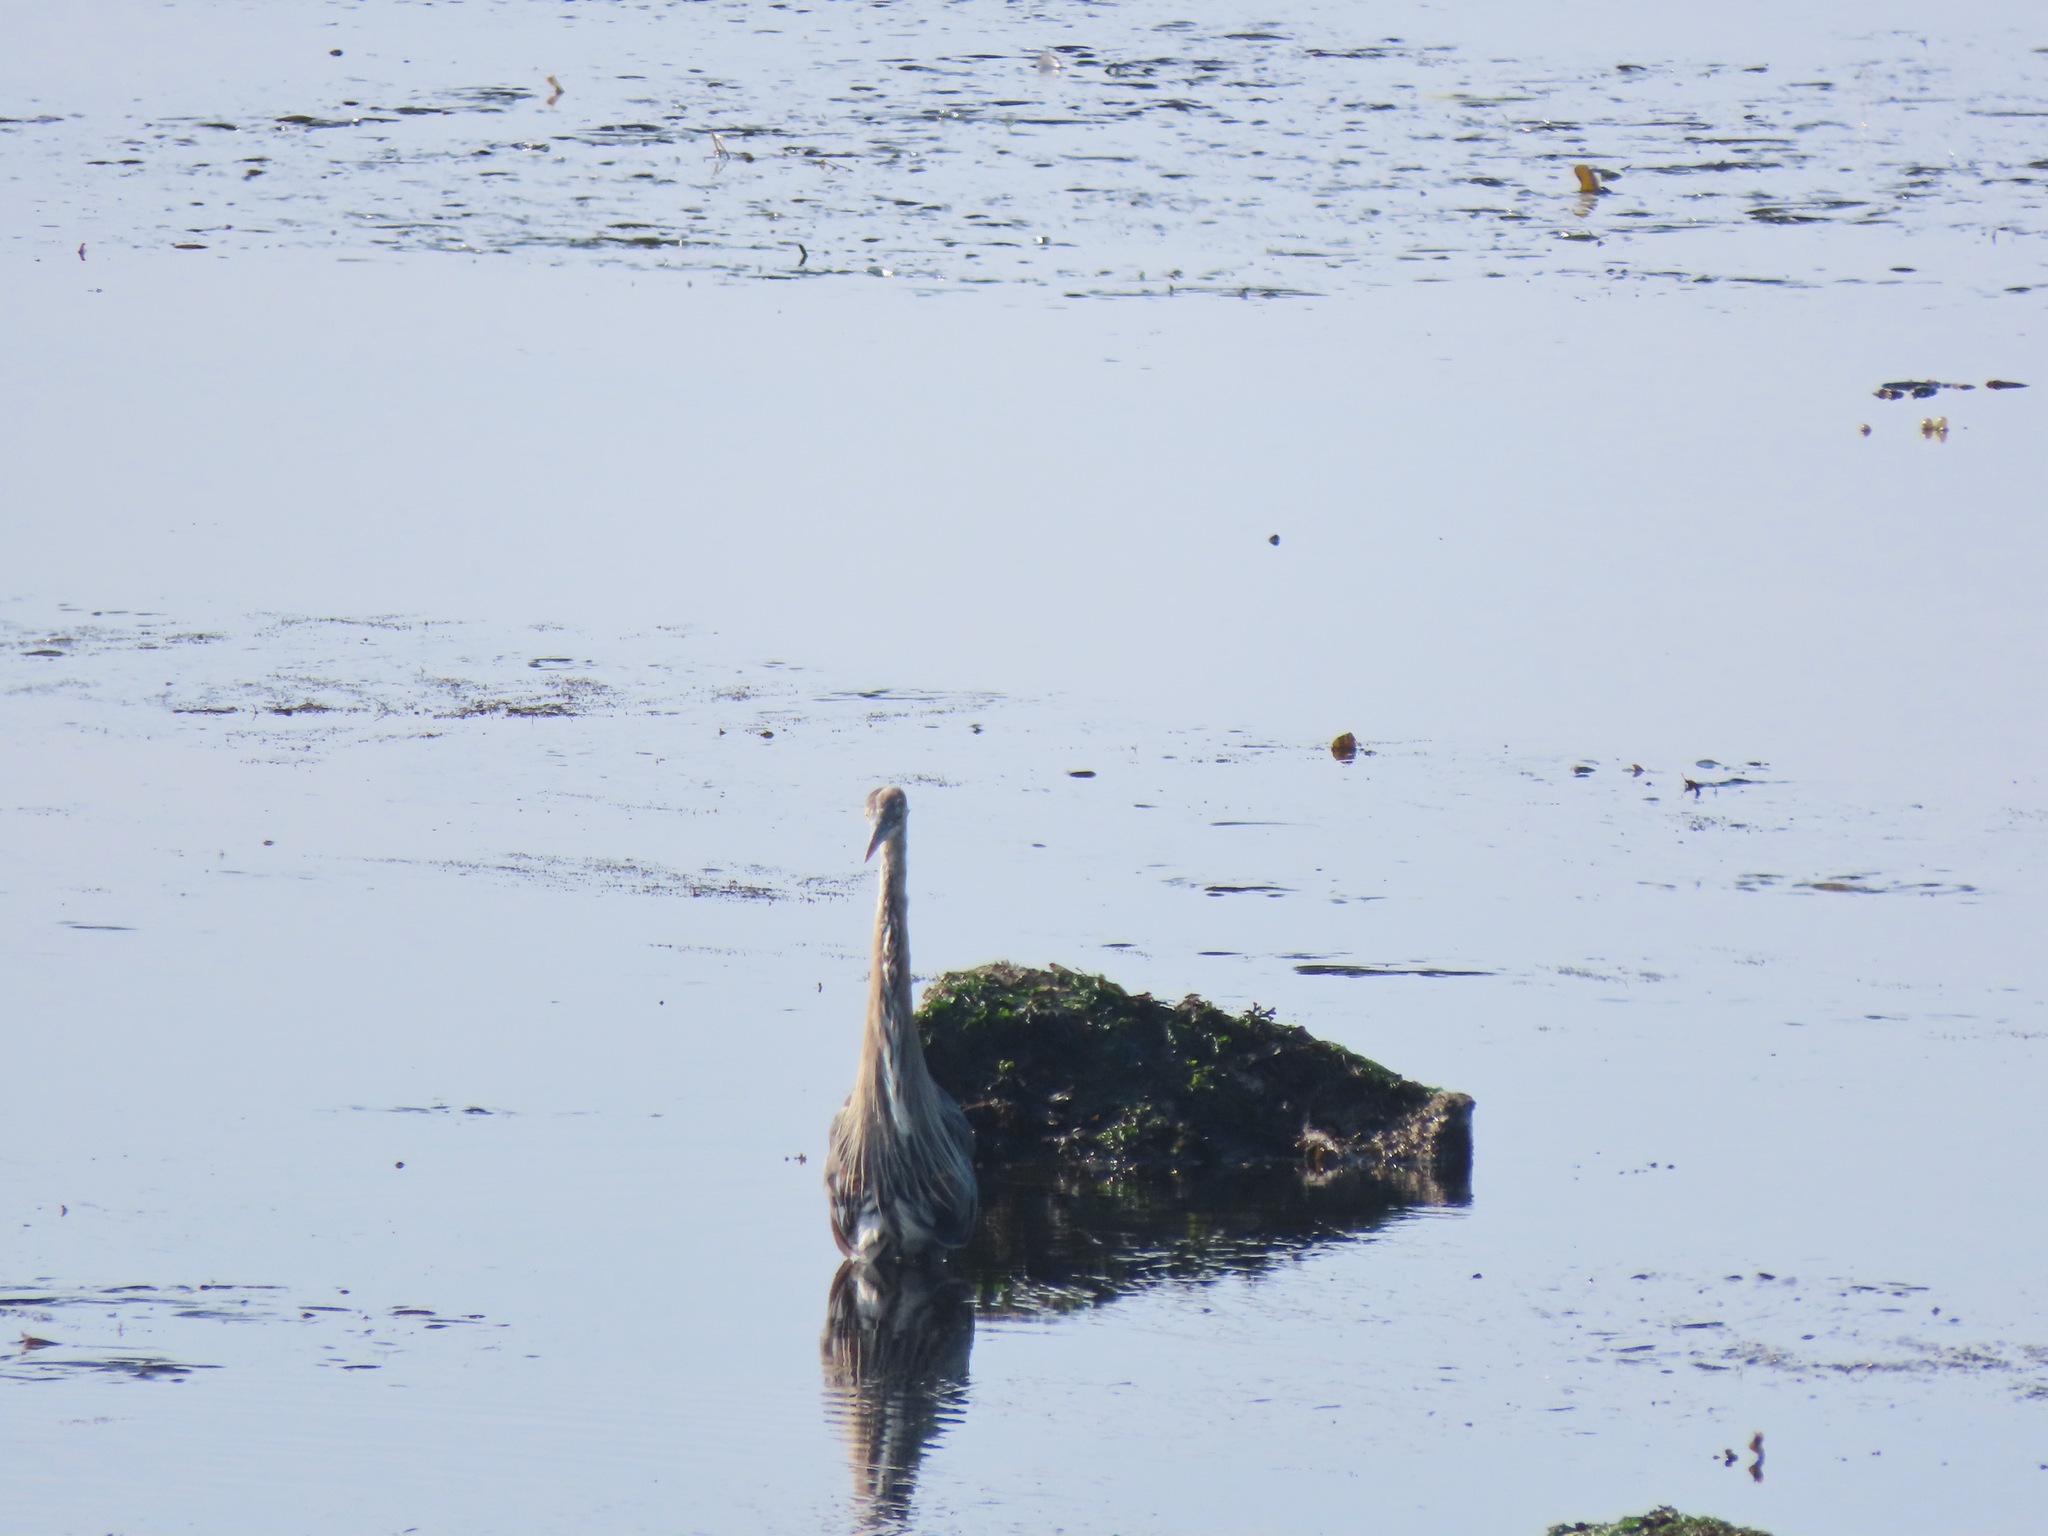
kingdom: Animalia
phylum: Chordata
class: Aves
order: Pelecaniformes
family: Ardeidae
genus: Ardea
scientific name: Ardea herodias
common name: Great blue heron
